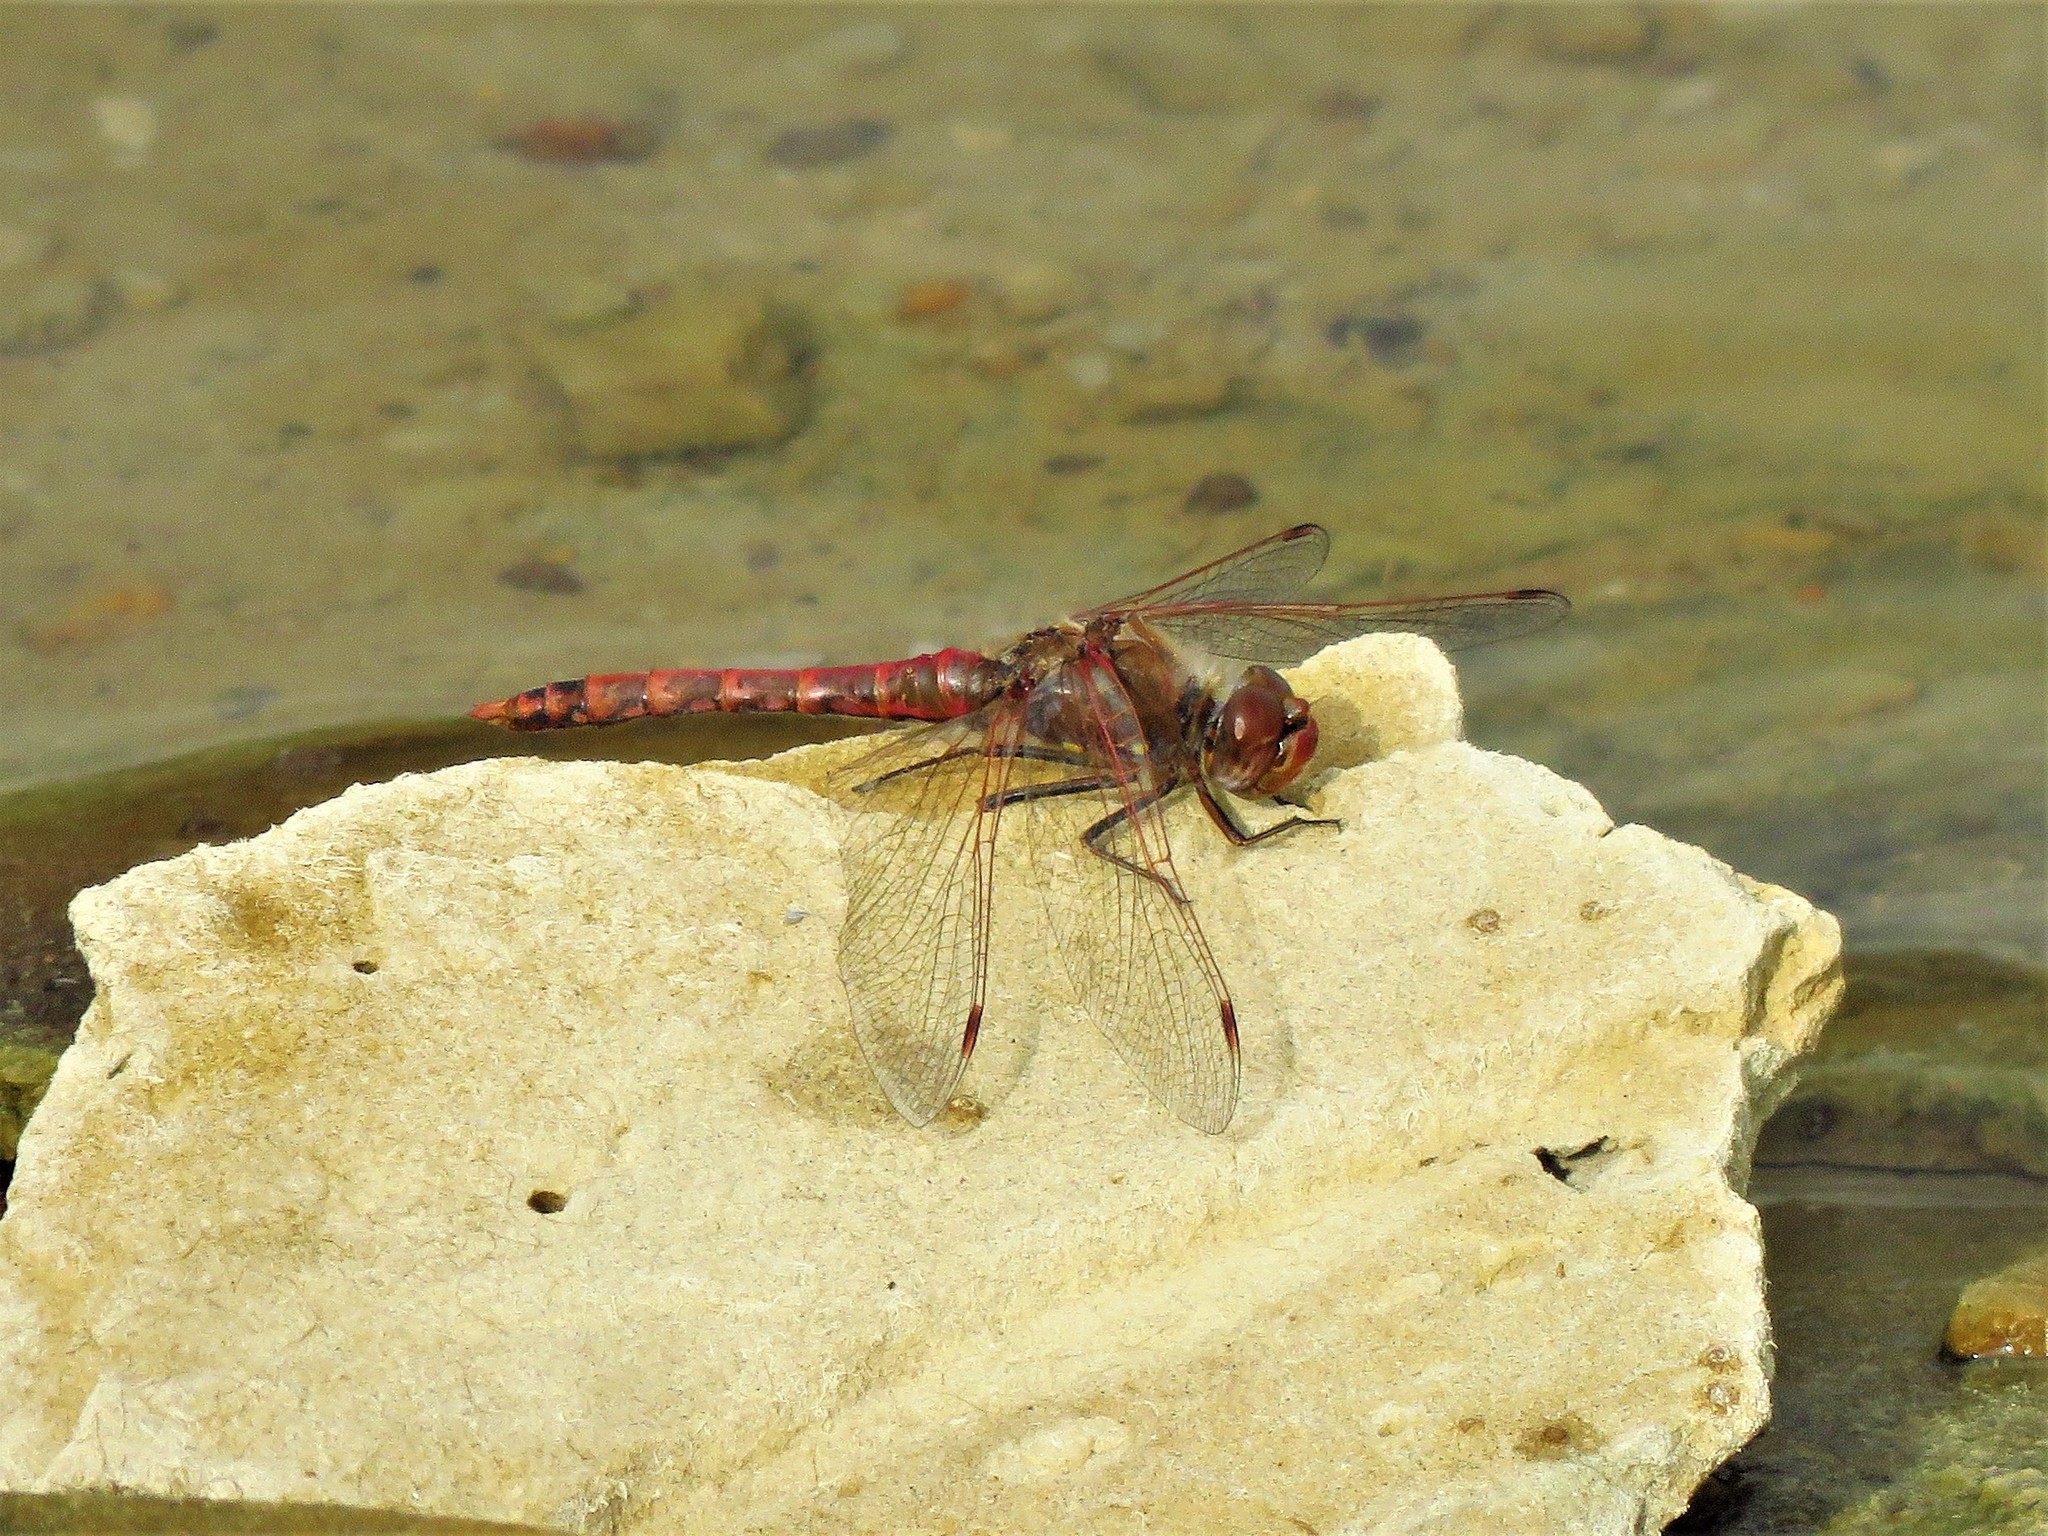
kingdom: Animalia
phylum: Arthropoda
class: Insecta
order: Odonata
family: Libellulidae
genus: Sympetrum
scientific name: Sympetrum corruptum
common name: Variegated meadowhawk
